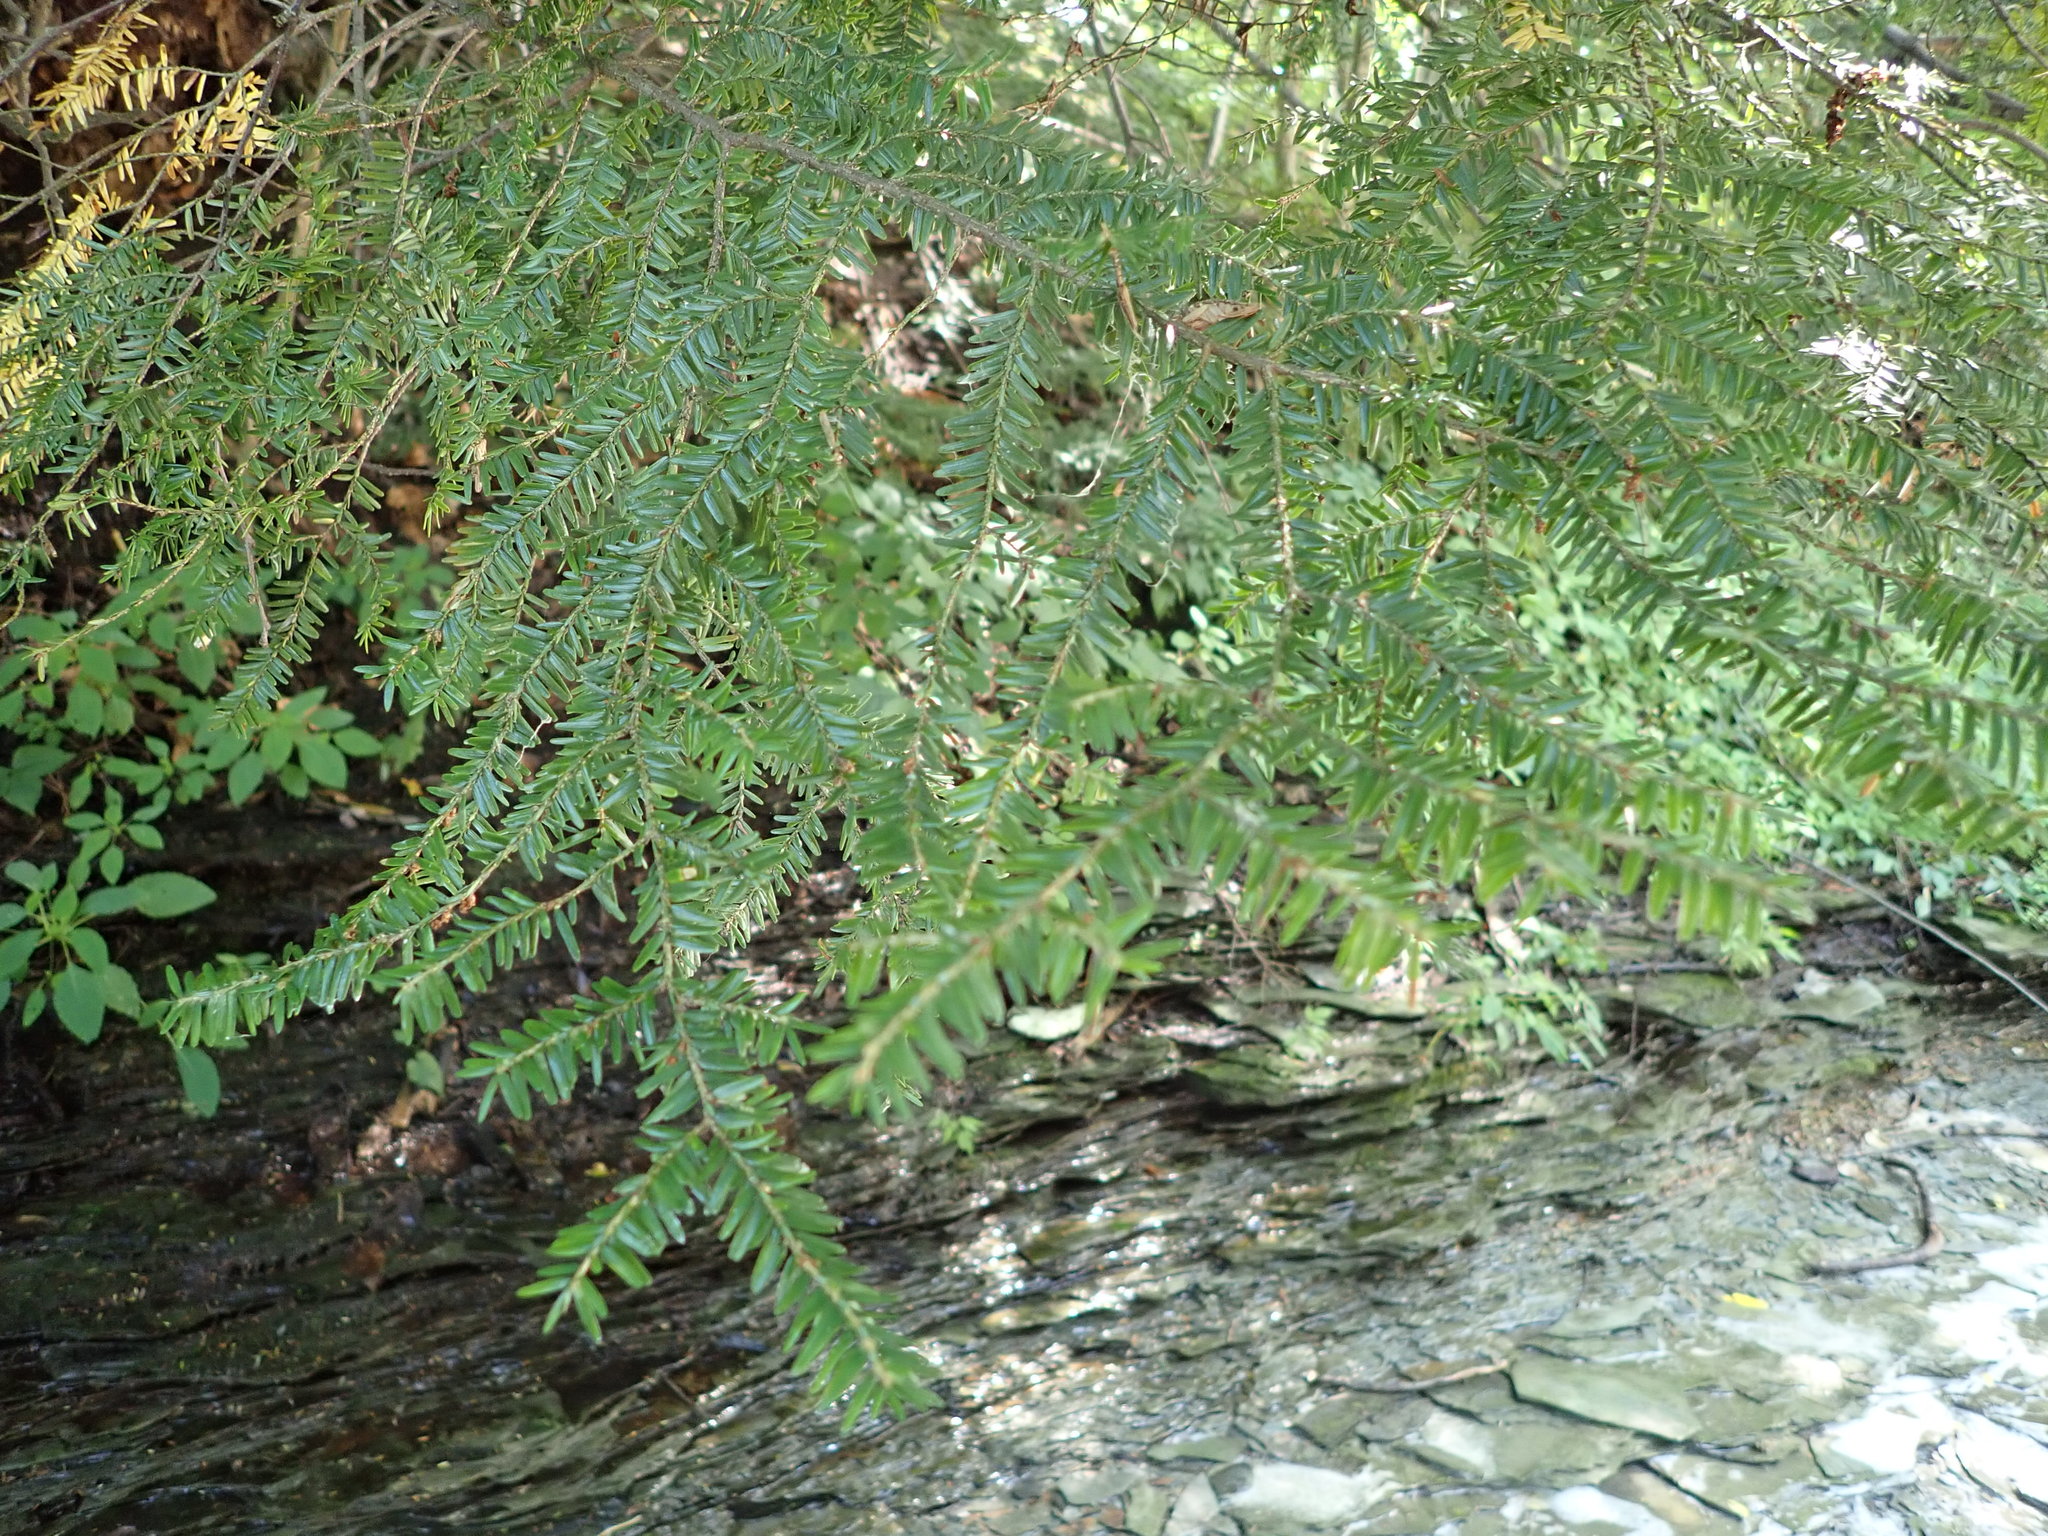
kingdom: Plantae
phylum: Tracheophyta
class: Pinopsida
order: Pinales
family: Pinaceae
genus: Tsuga
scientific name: Tsuga canadensis
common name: Eastern hemlock
